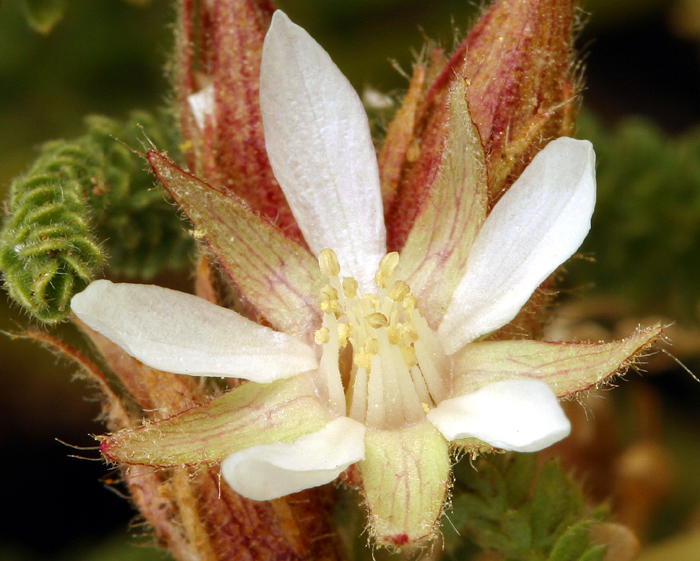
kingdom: Plantae
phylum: Tracheophyta
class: Magnoliopsida
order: Rosales
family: Rosaceae
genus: Potentilla
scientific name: Potentilla congdonis
